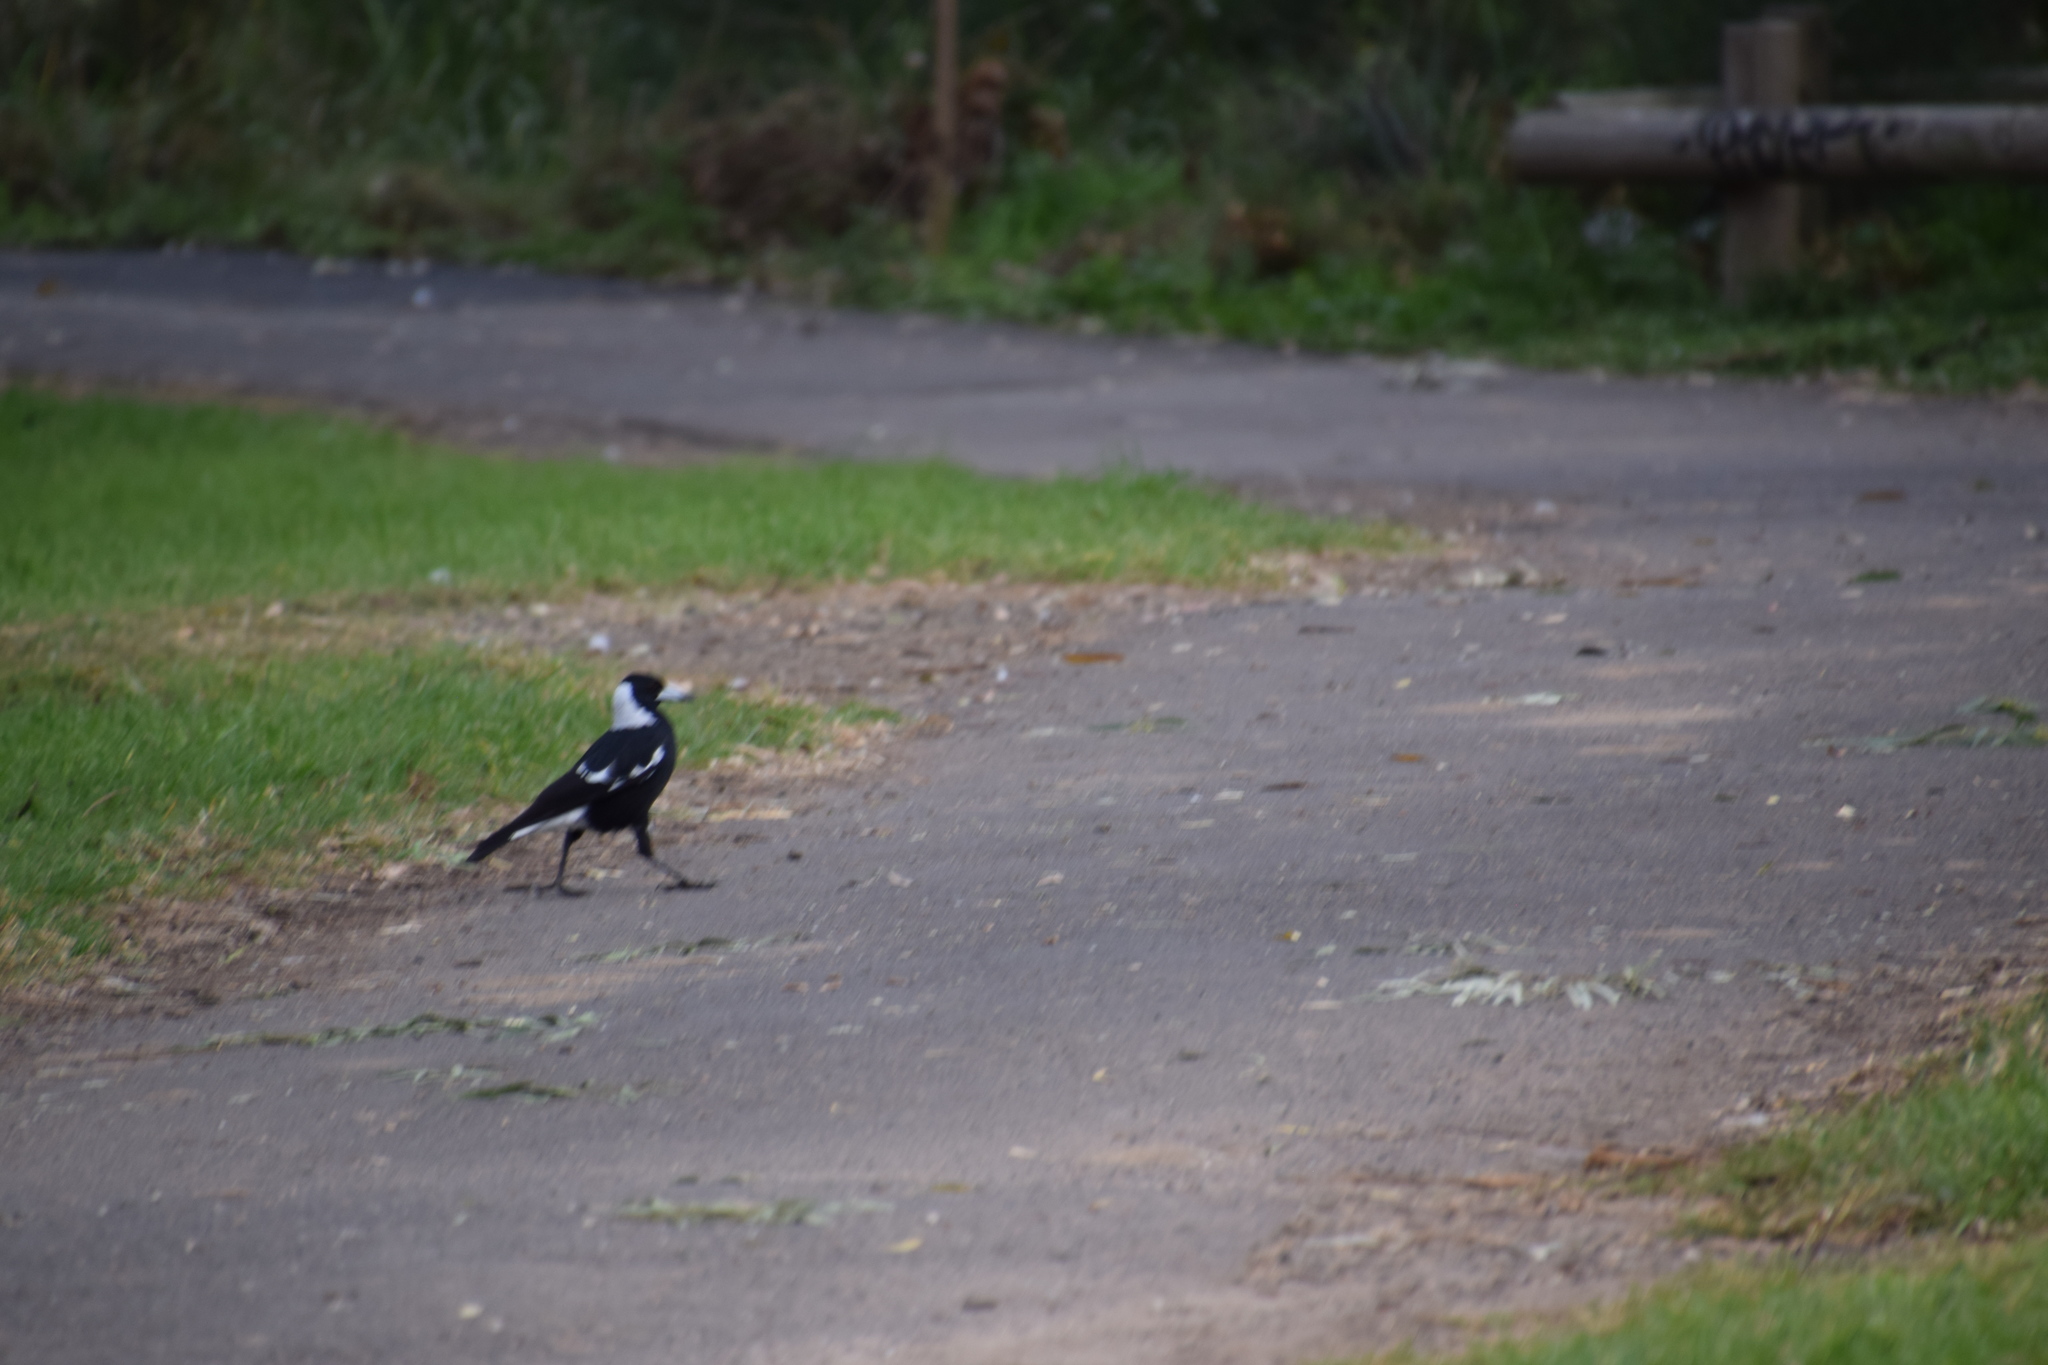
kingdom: Animalia
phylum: Chordata
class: Aves
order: Passeriformes
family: Cracticidae
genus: Gymnorhina
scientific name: Gymnorhina tibicen
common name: Australian magpie
